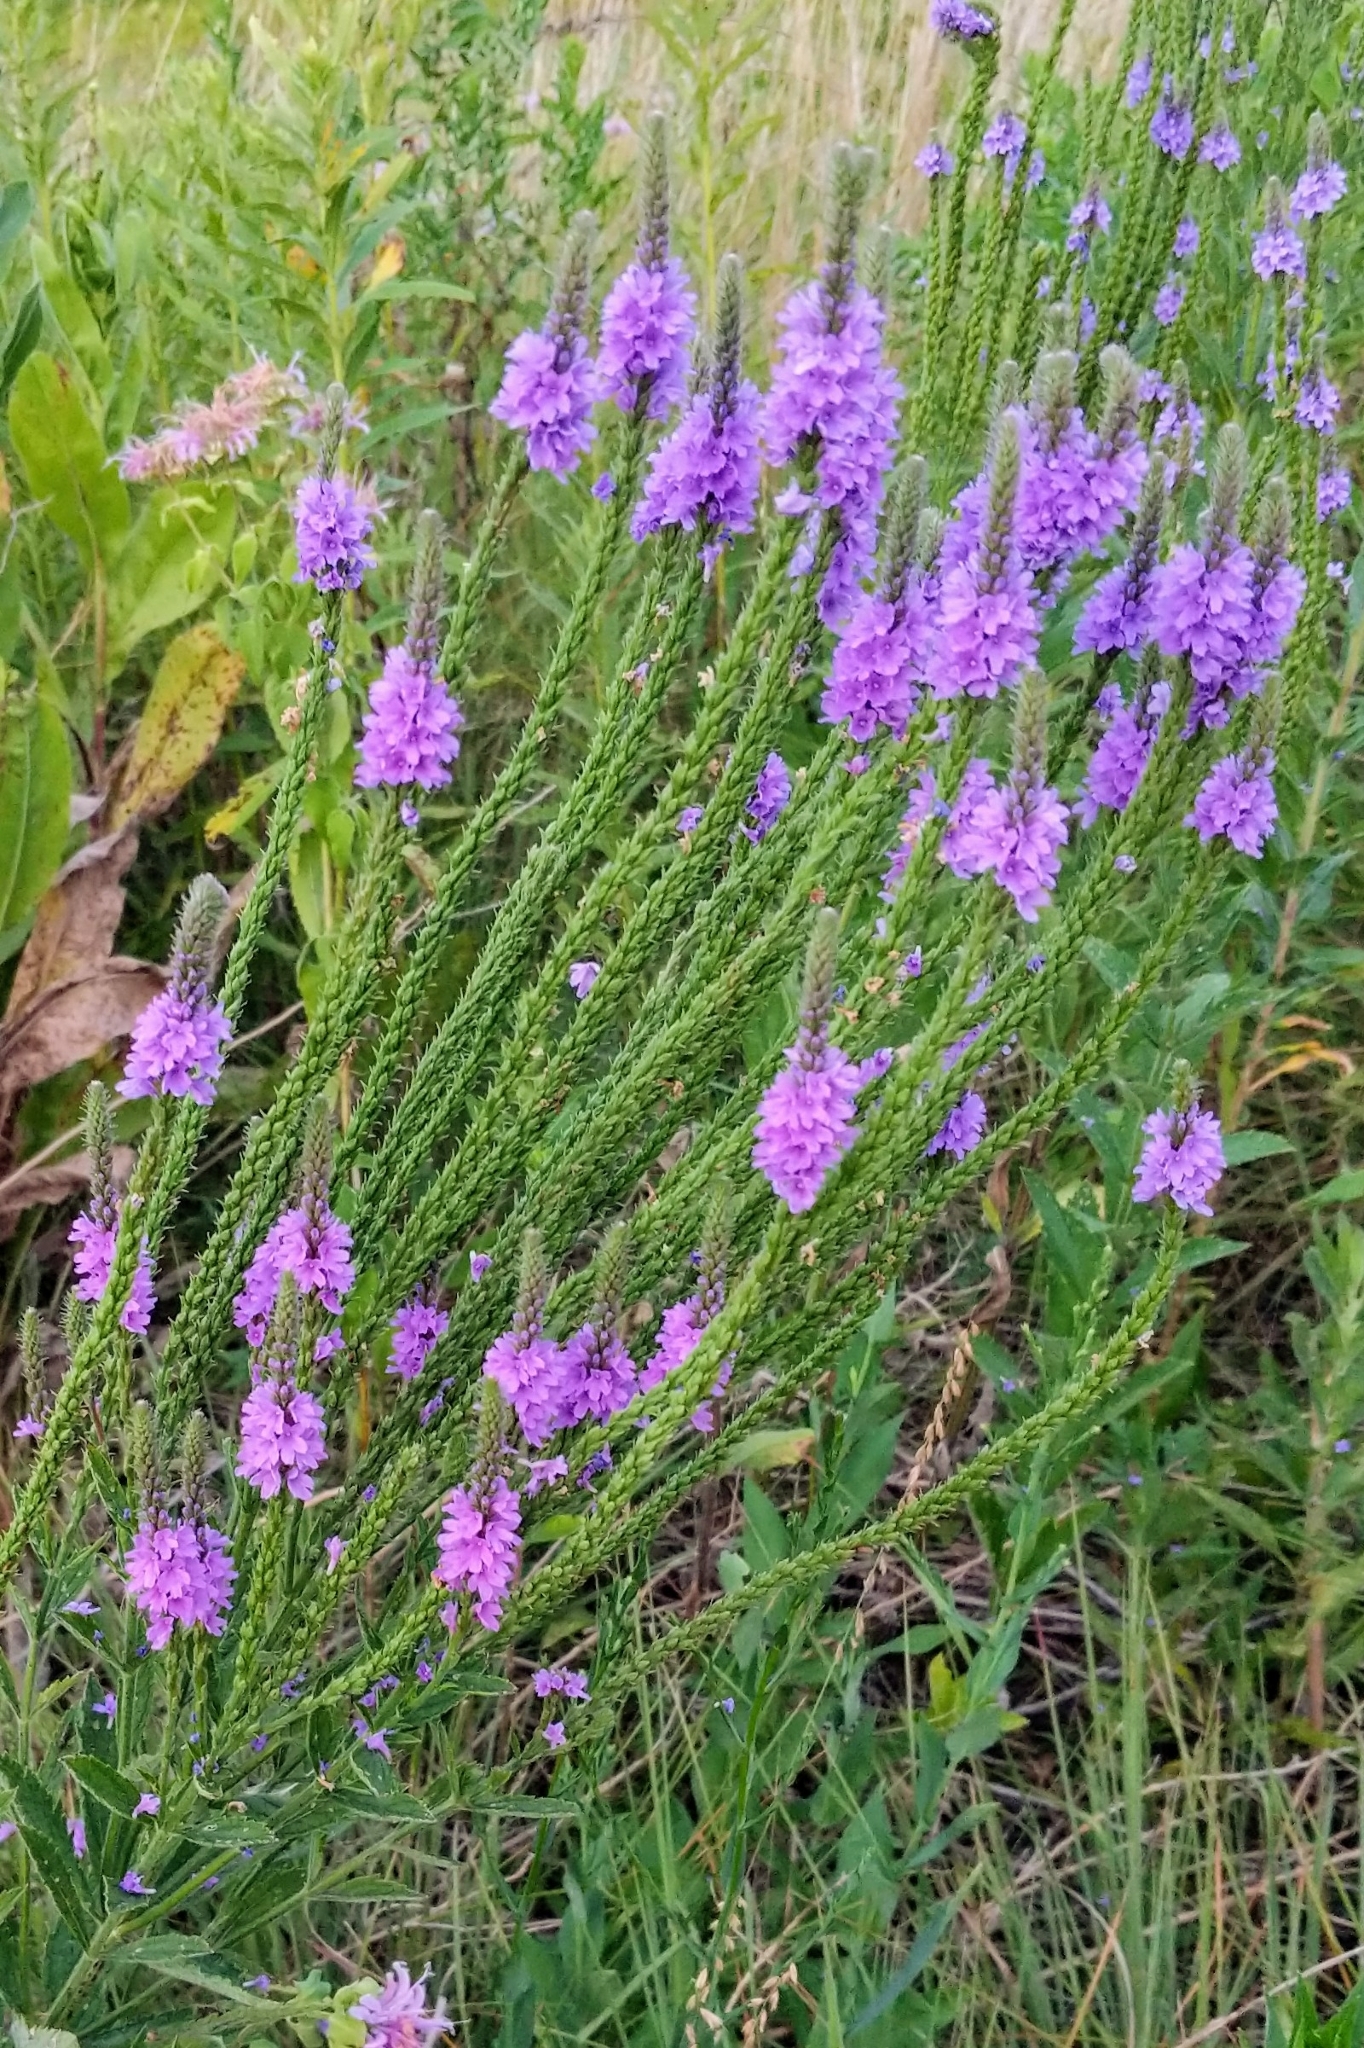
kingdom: Plantae
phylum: Tracheophyta
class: Magnoliopsida
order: Lamiales
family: Verbenaceae
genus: Verbena
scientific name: Verbena stricta
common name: Hoary vervain
